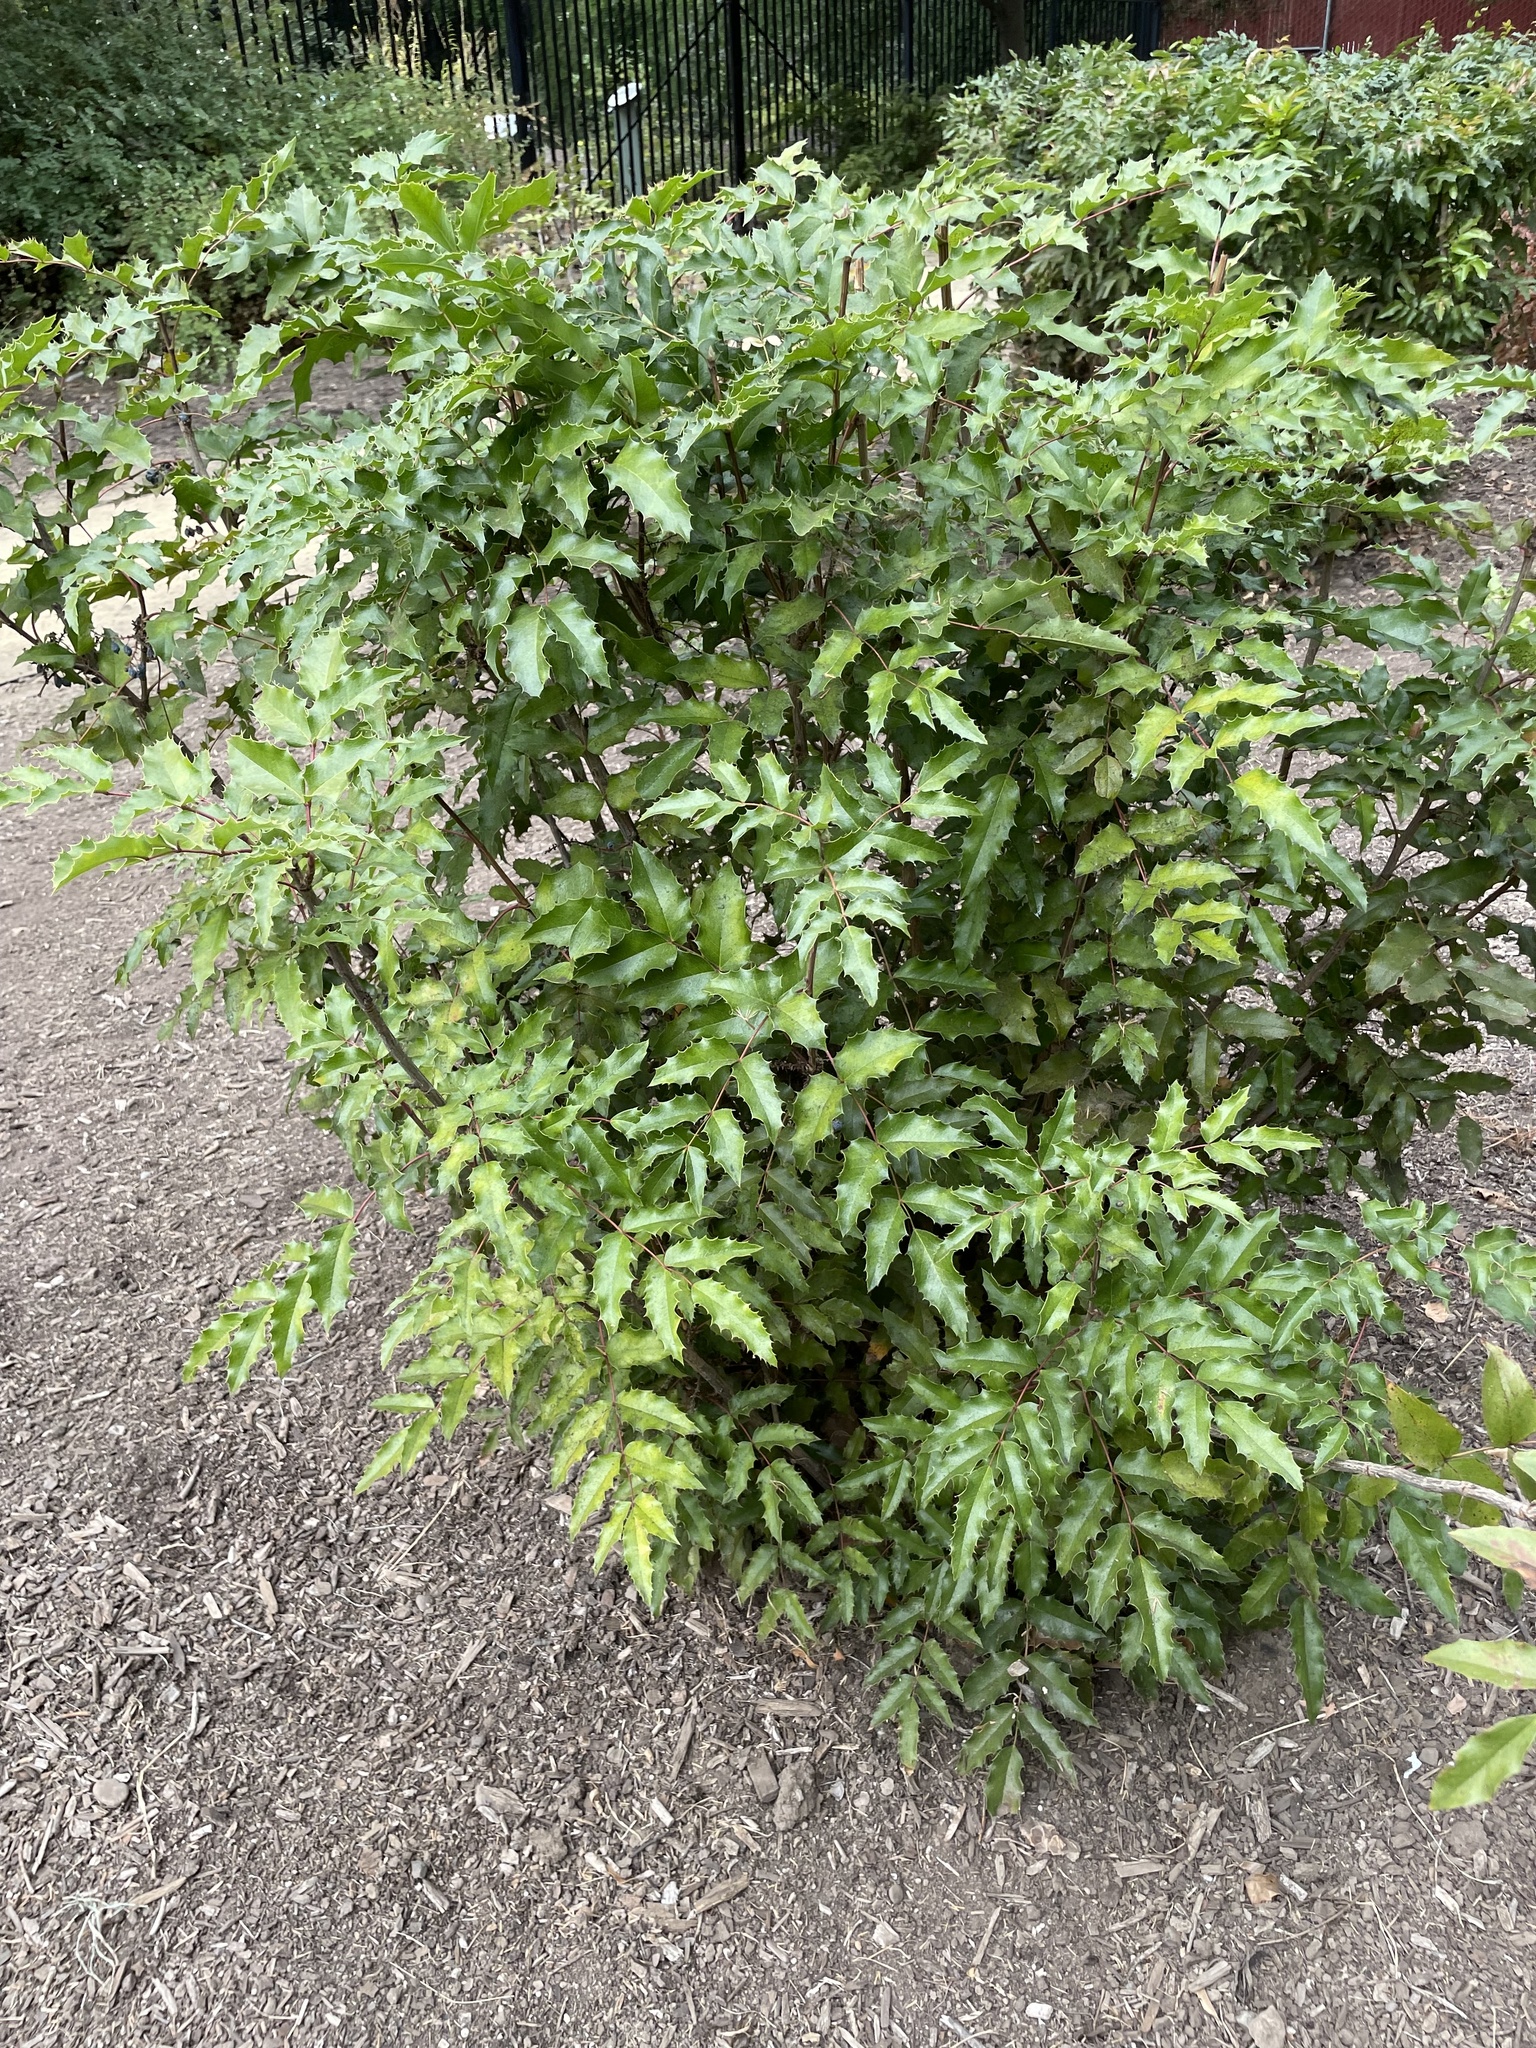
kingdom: Plantae
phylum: Tracheophyta
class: Magnoliopsida
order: Ranunculales
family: Berberidaceae
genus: Mahonia
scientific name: Mahonia aquifolium
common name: Oregon-grape
